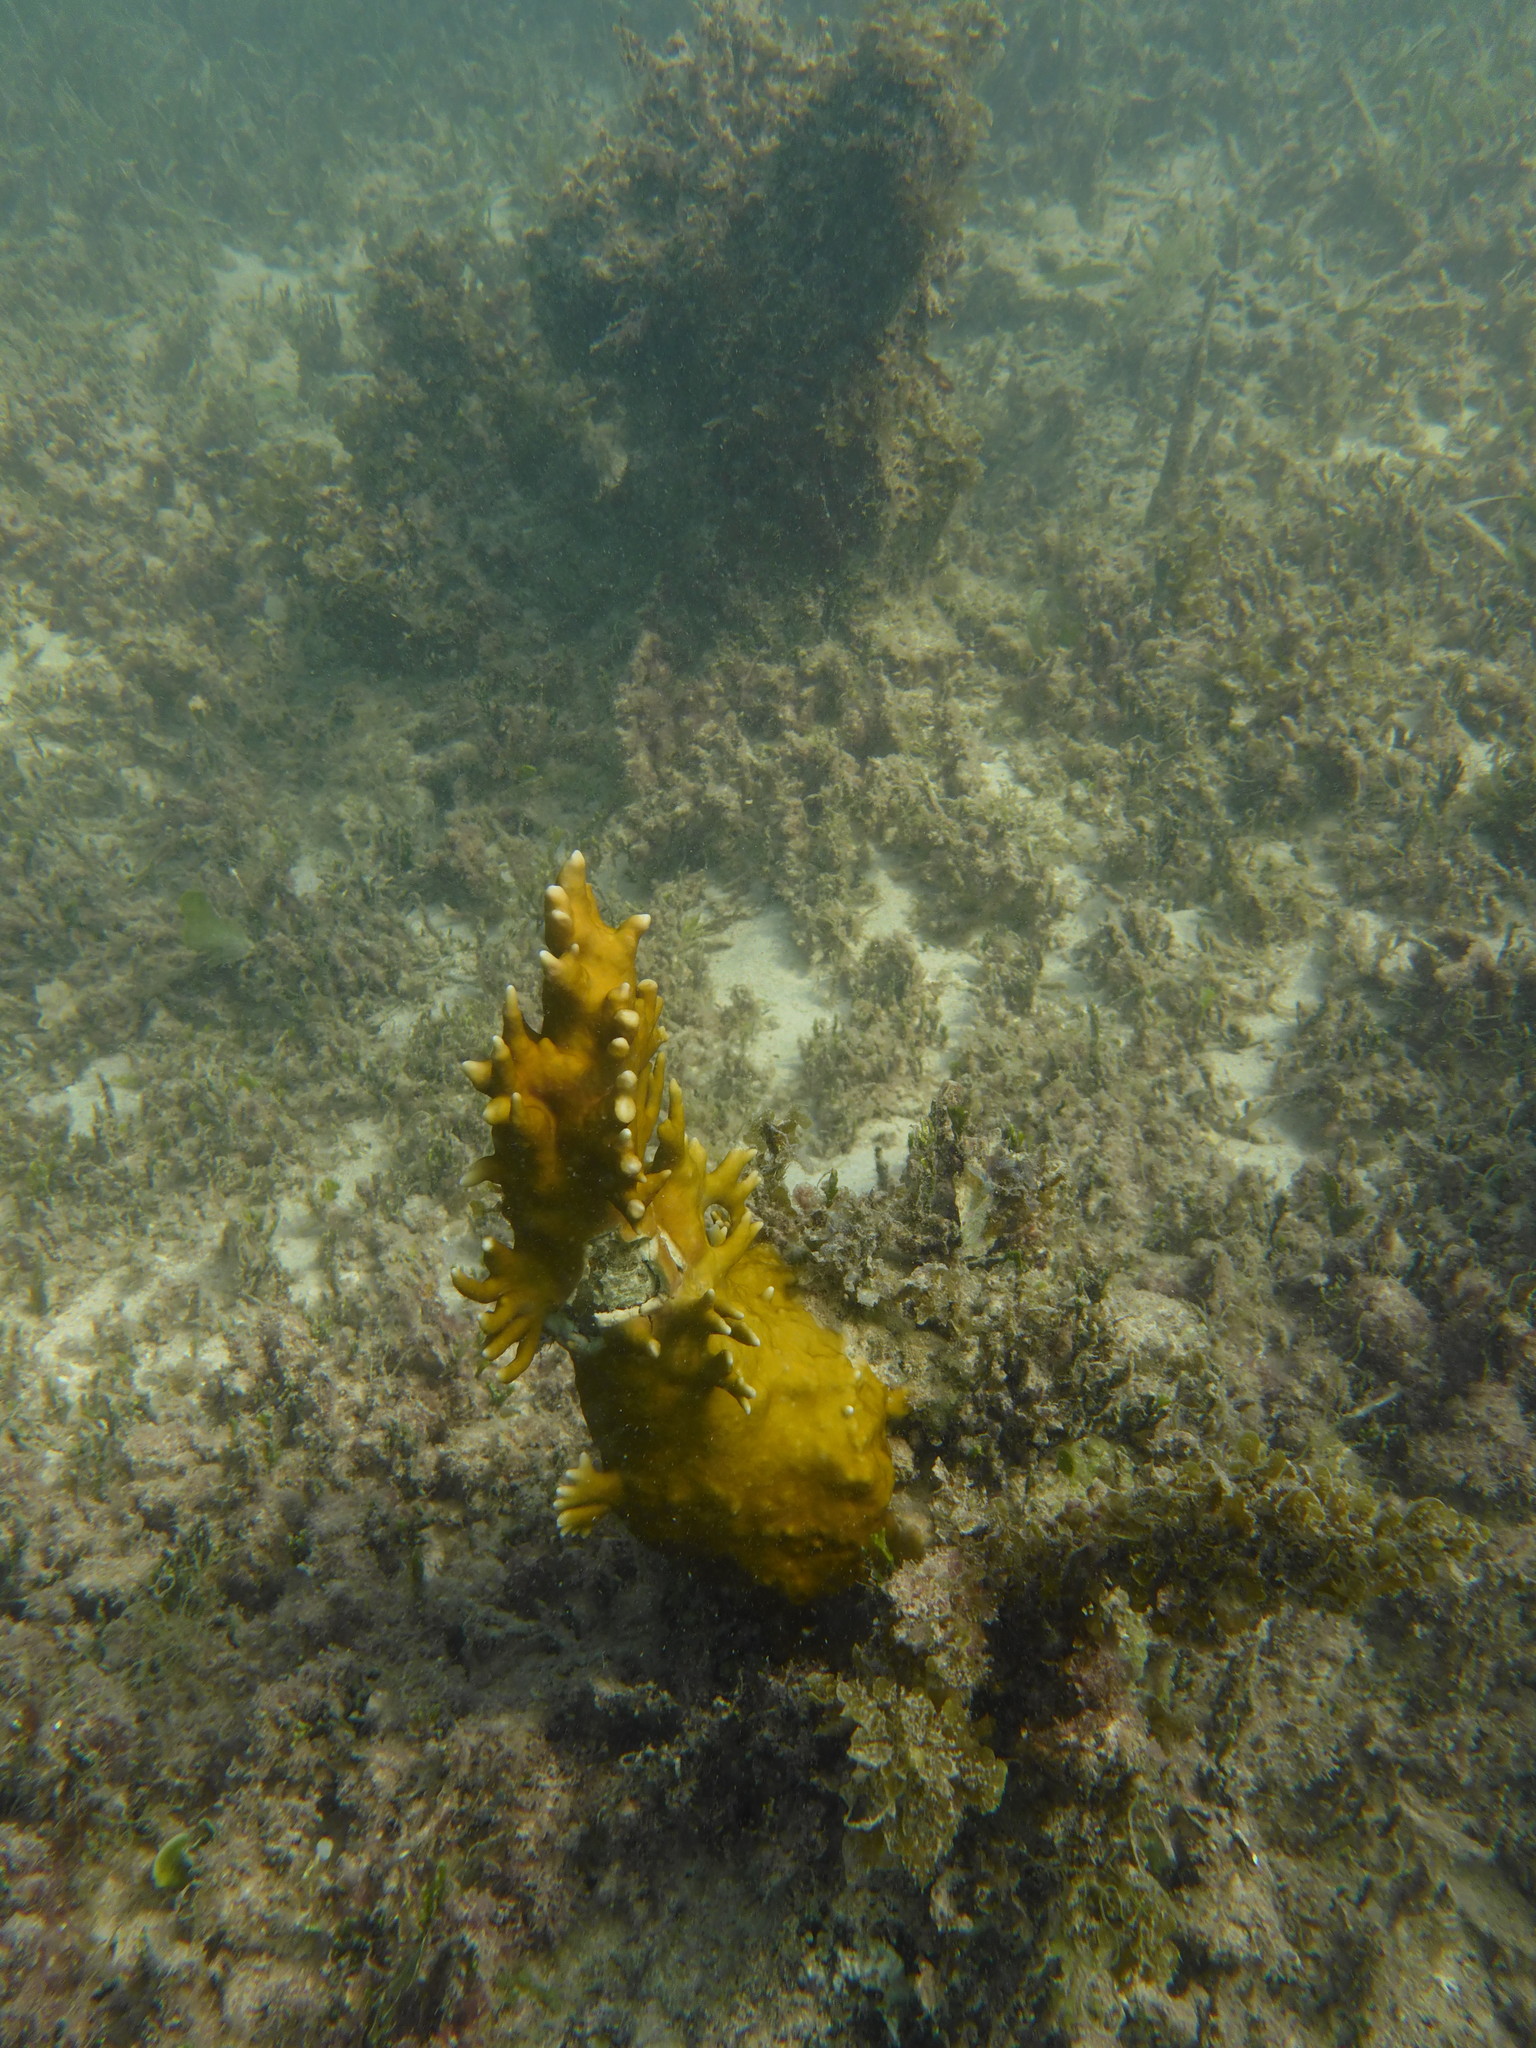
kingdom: Animalia
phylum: Cnidaria
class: Hydrozoa
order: Anthoathecata
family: Milleporidae
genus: Millepora
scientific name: Millepora alcicornis
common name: Branching fire coral
